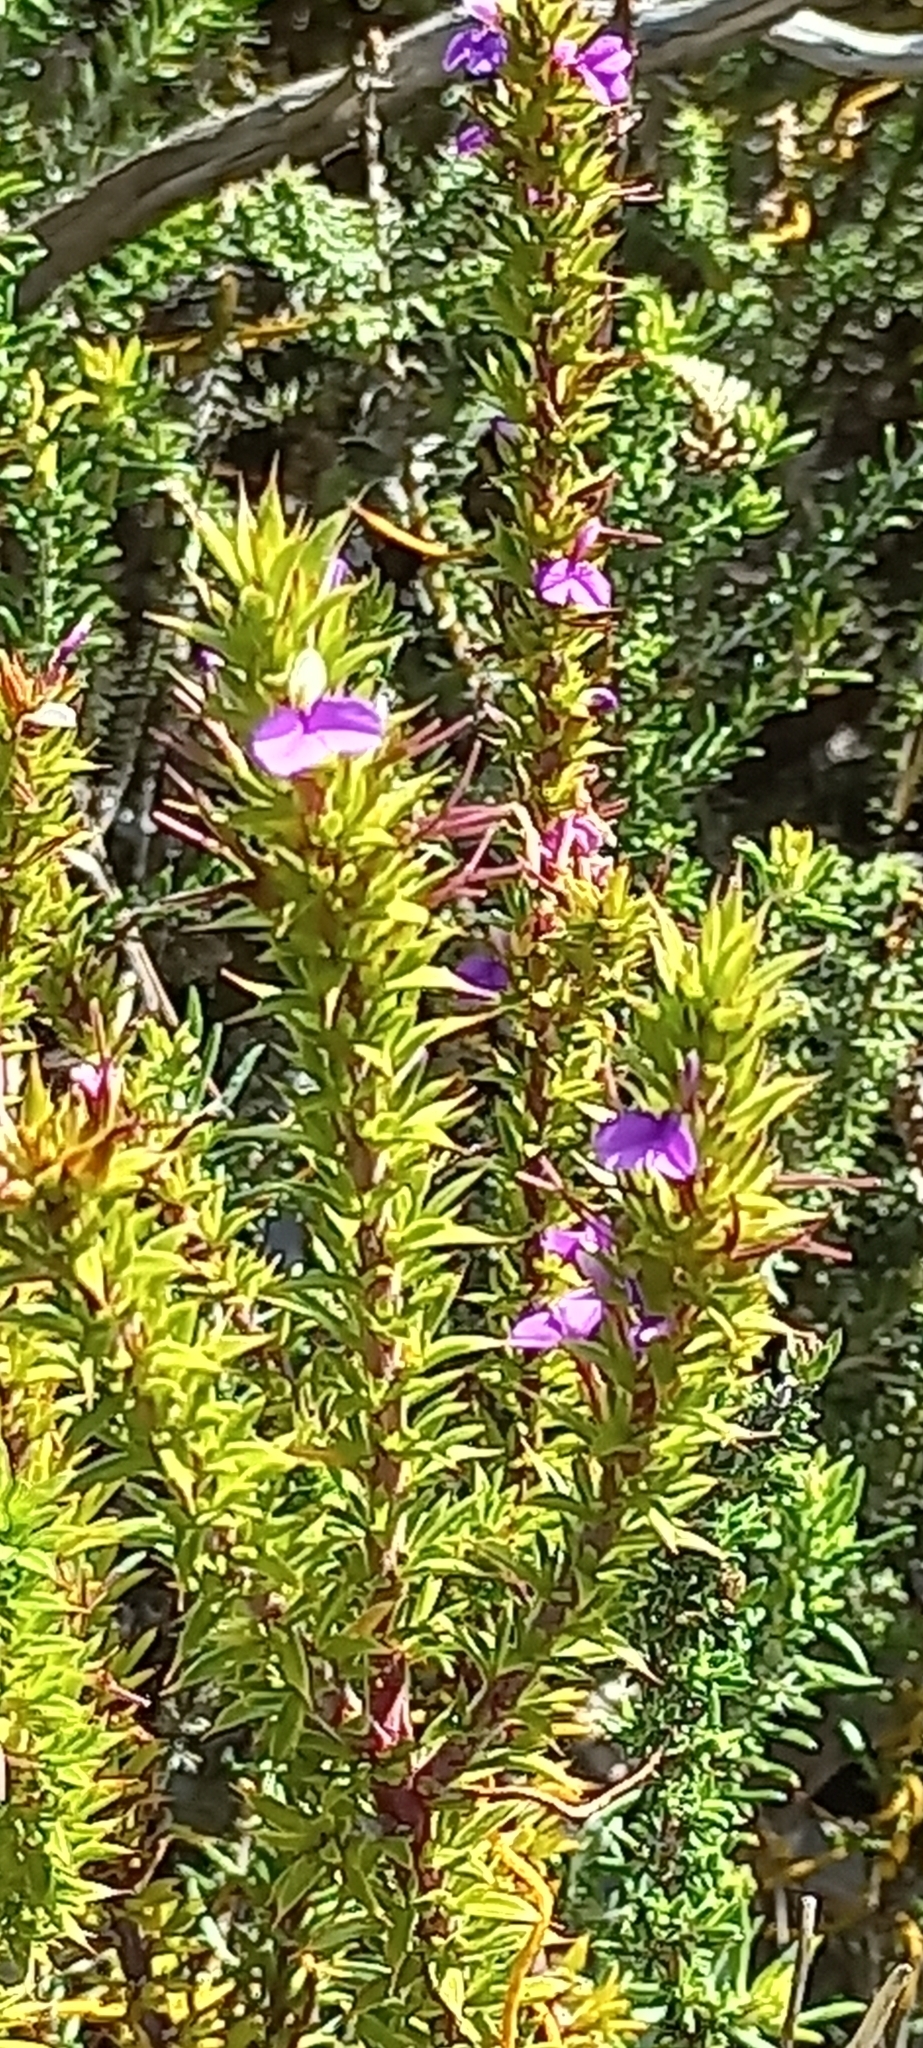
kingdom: Plantae
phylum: Tracheophyta
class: Magnoliopsida
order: Fabales
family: Polygalaceae
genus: Muraltia
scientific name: Muraltia heisteria
